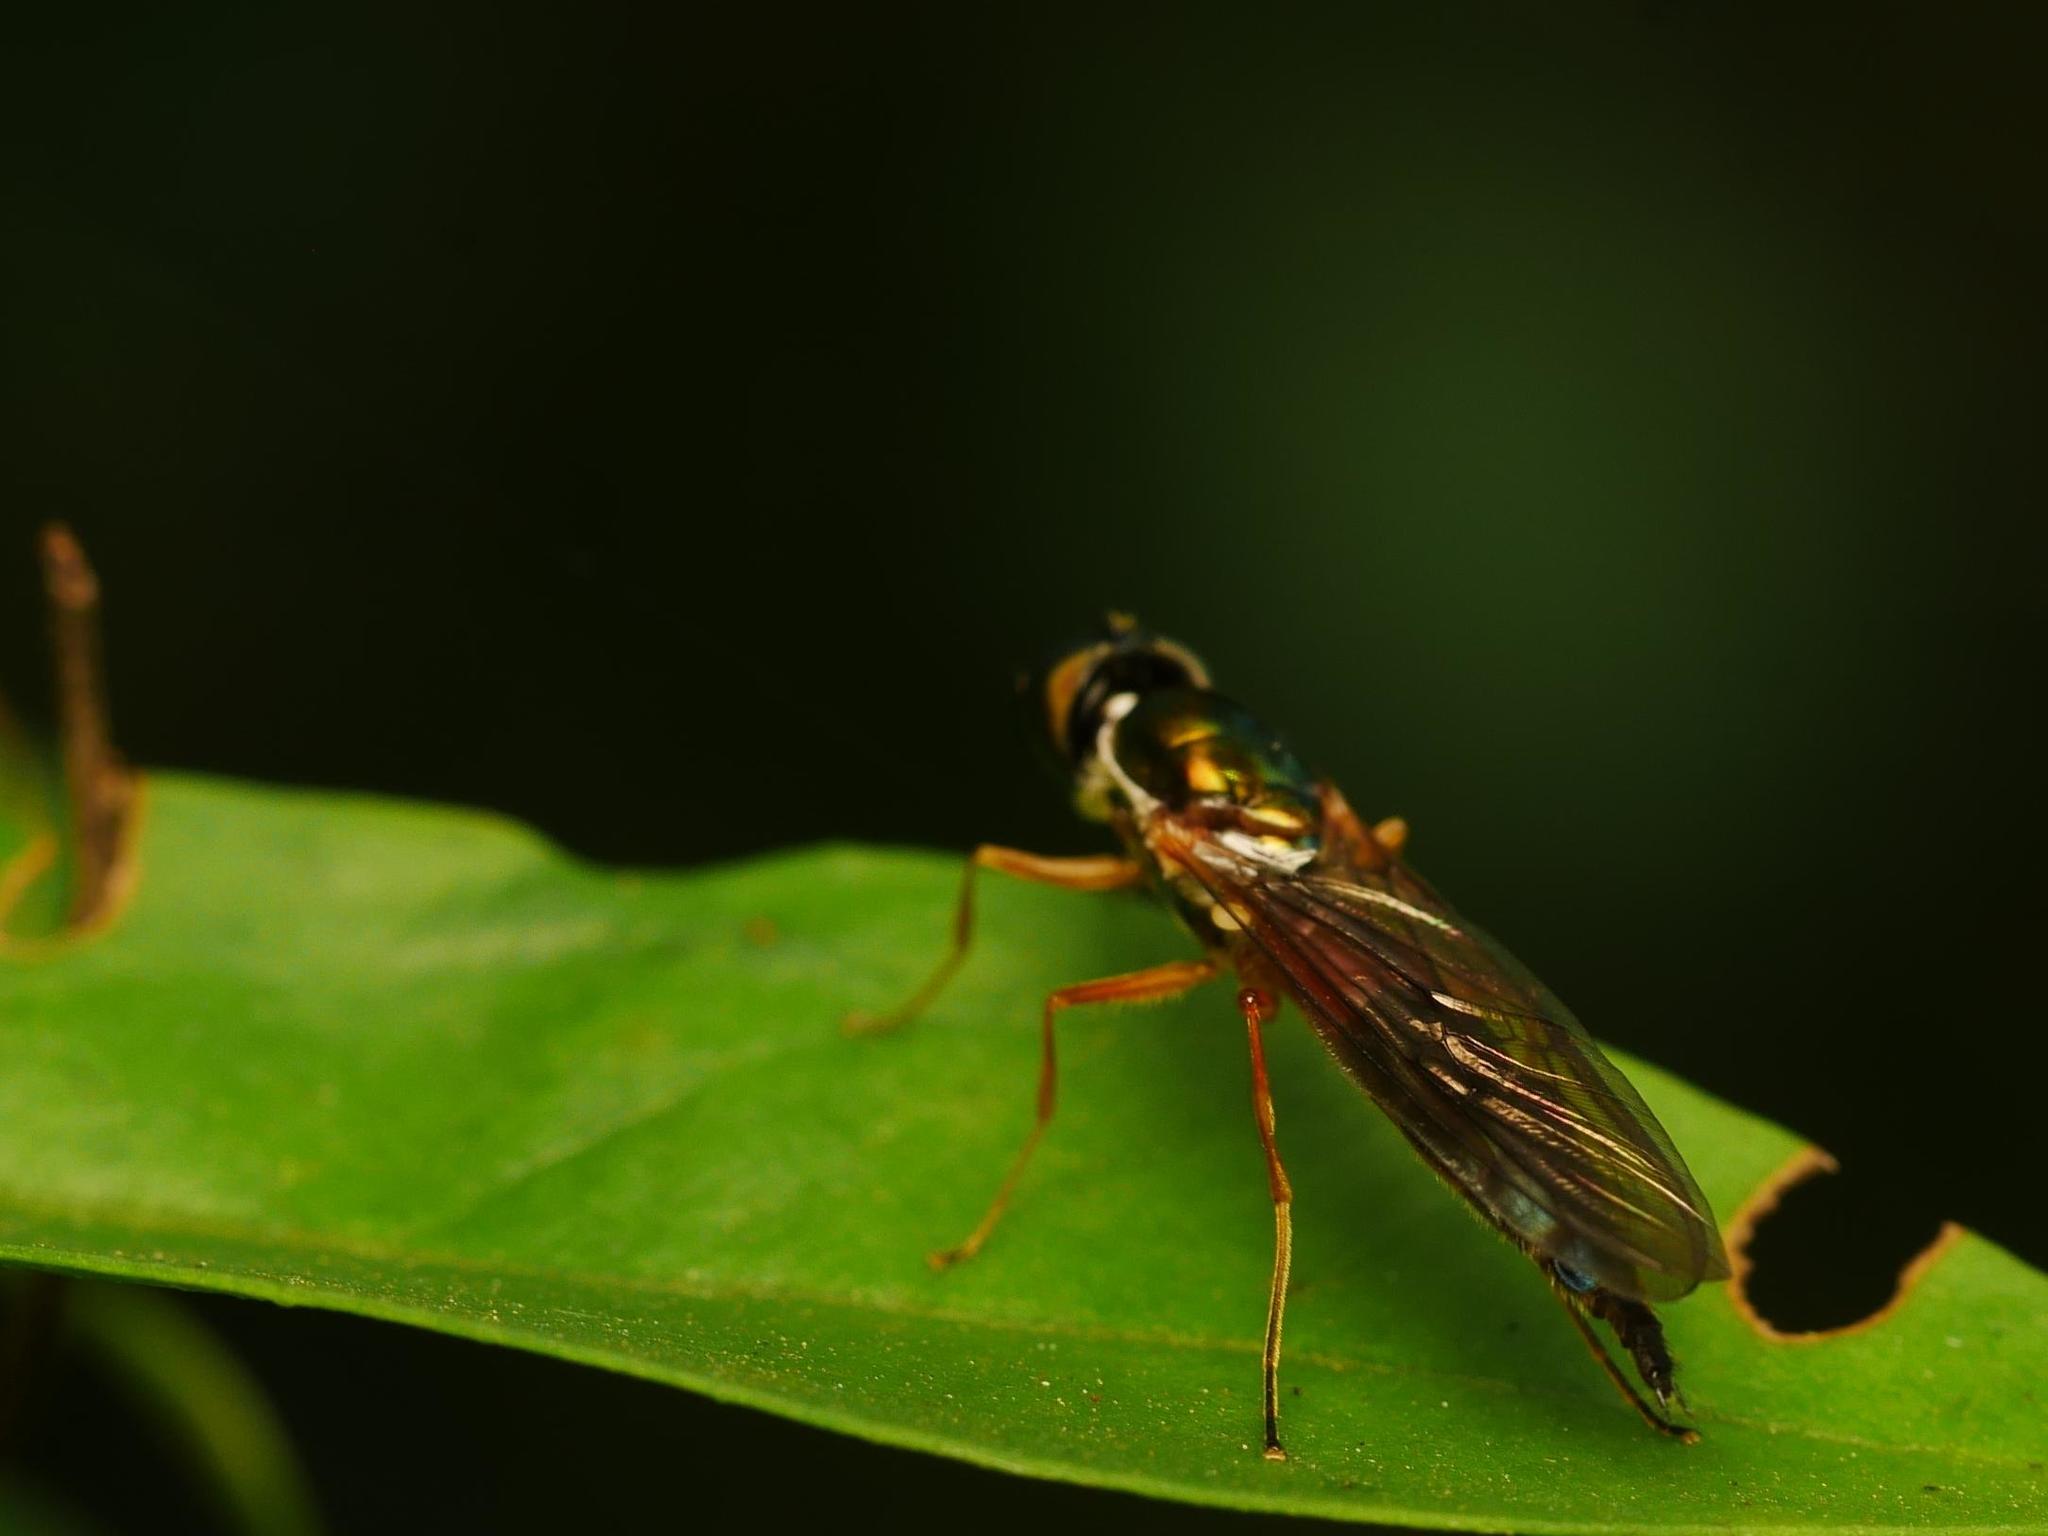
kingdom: Animalia
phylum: Arthropoda
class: Insecta
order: Diptera
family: Stratiomyidae
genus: Sargus
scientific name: Sargus bipunctatus
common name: Twin-spot centurion
